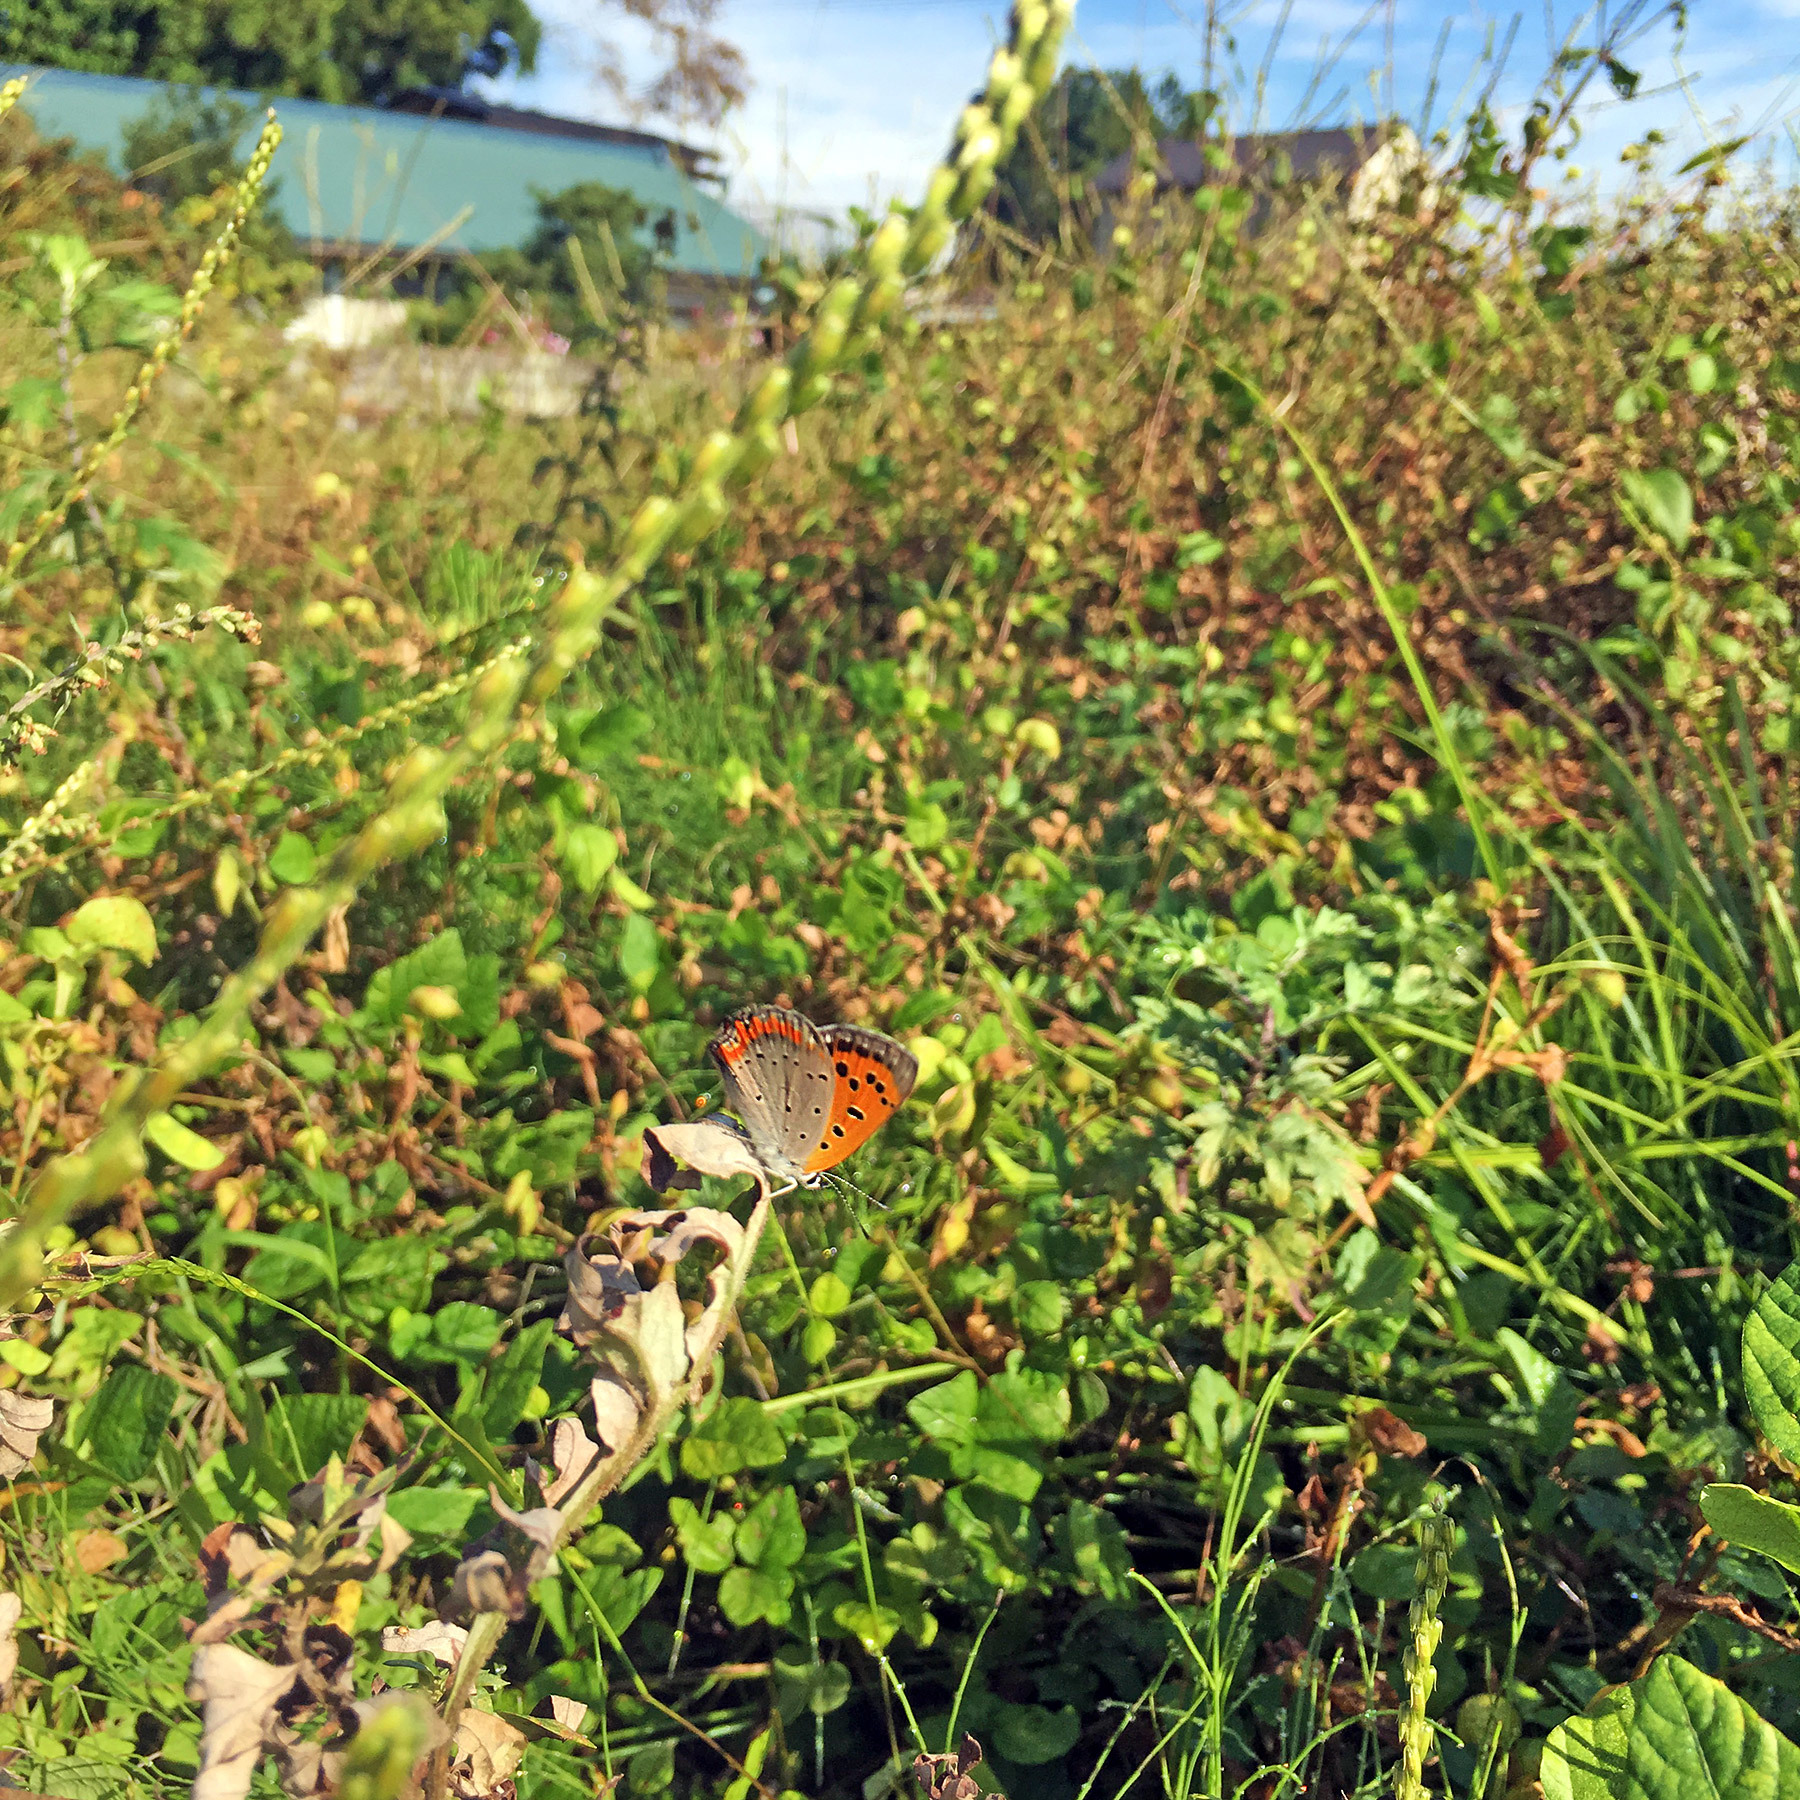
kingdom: Animalia
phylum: Arthropoda
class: Insecta
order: Lepidoptera
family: Lycaenidae
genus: Lycaena
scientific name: Lycaena phlaeas
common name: Small copper
